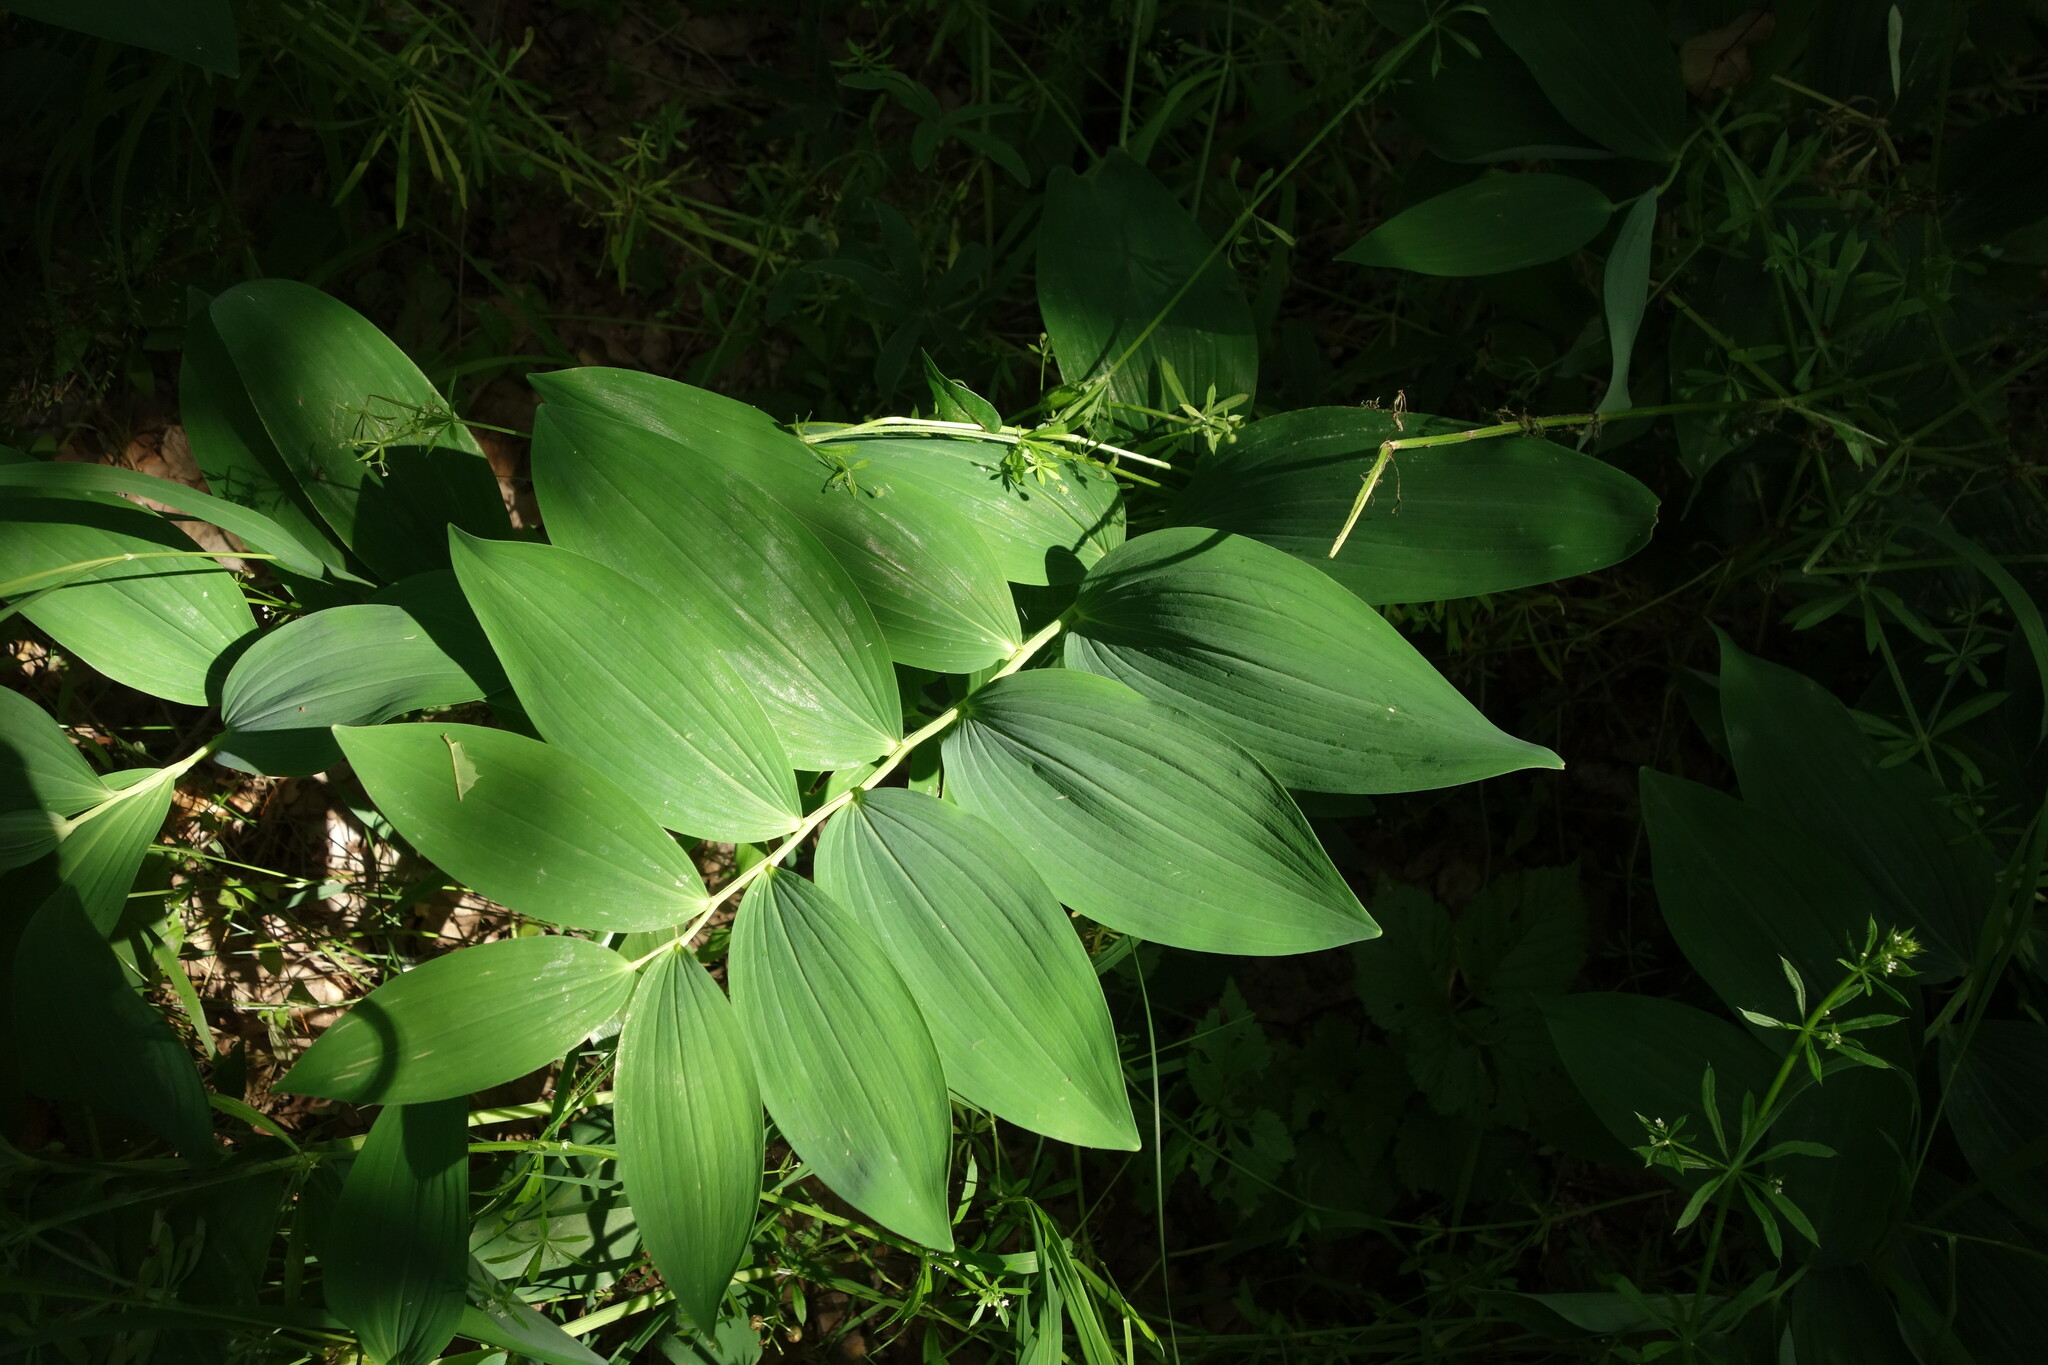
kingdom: Plantae
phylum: Tracheophyta
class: Liliopsida
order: Asparagales
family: Asparagaceae
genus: Polygonatum
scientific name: Polygonatum odoratum
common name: Angular solomon's-seal
